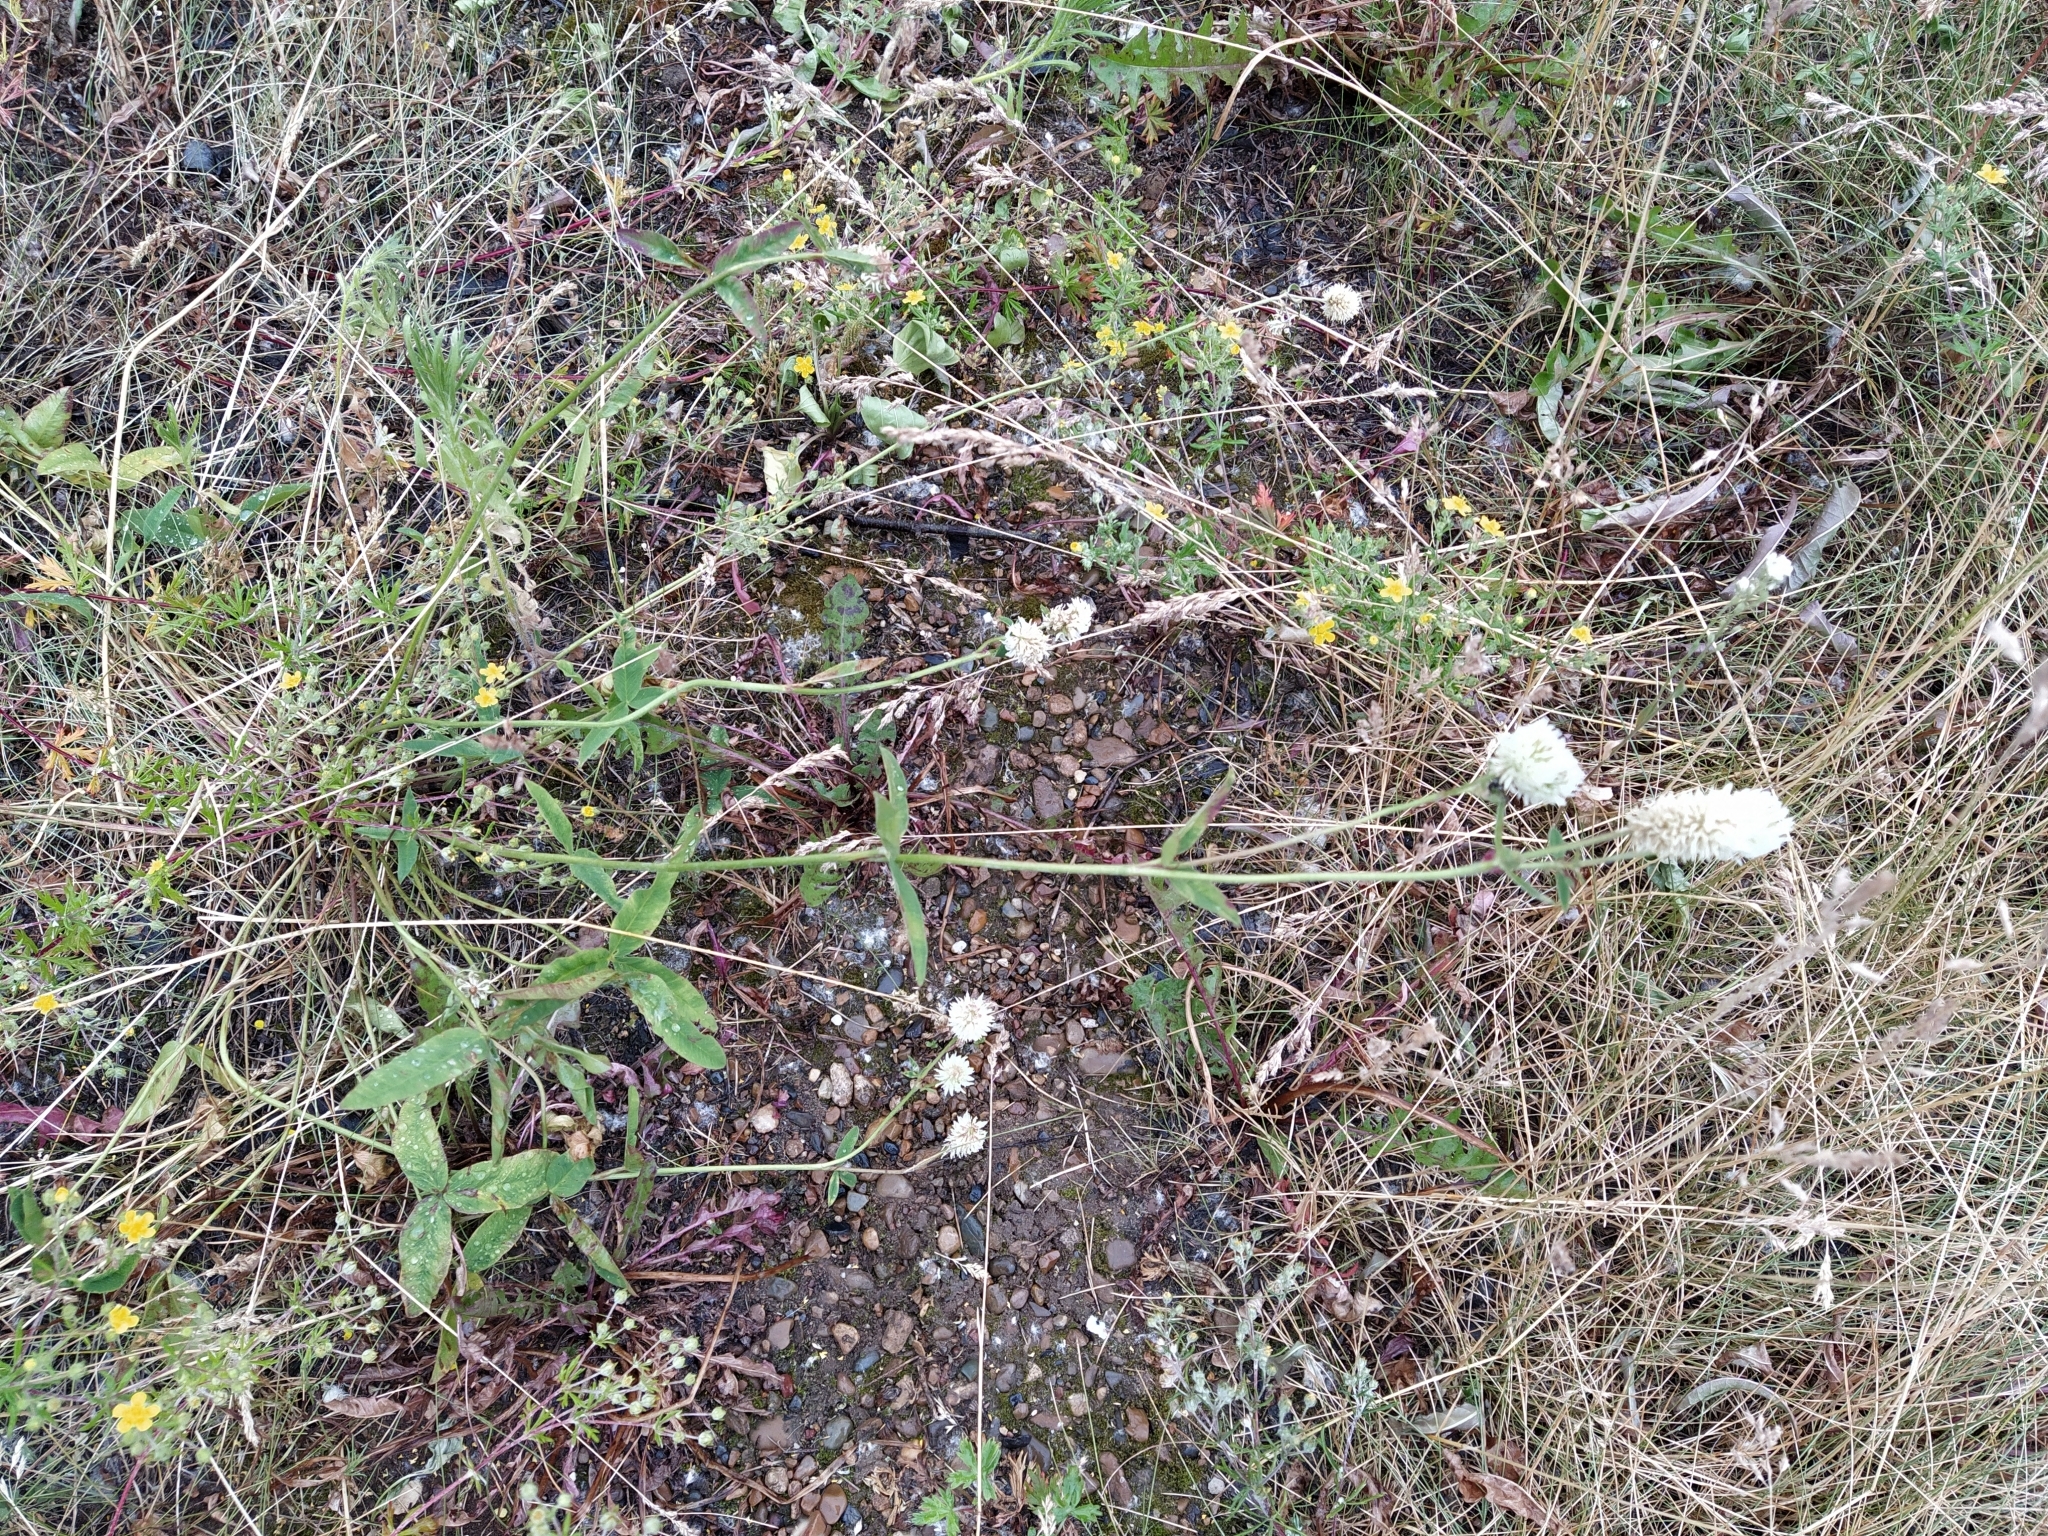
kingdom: Plantae
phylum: Tracheophyta
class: Magnoliopsida
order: Fabales
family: Fabaceae
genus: Trifolium
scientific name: Trifolium montanum
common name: Mountain clover
